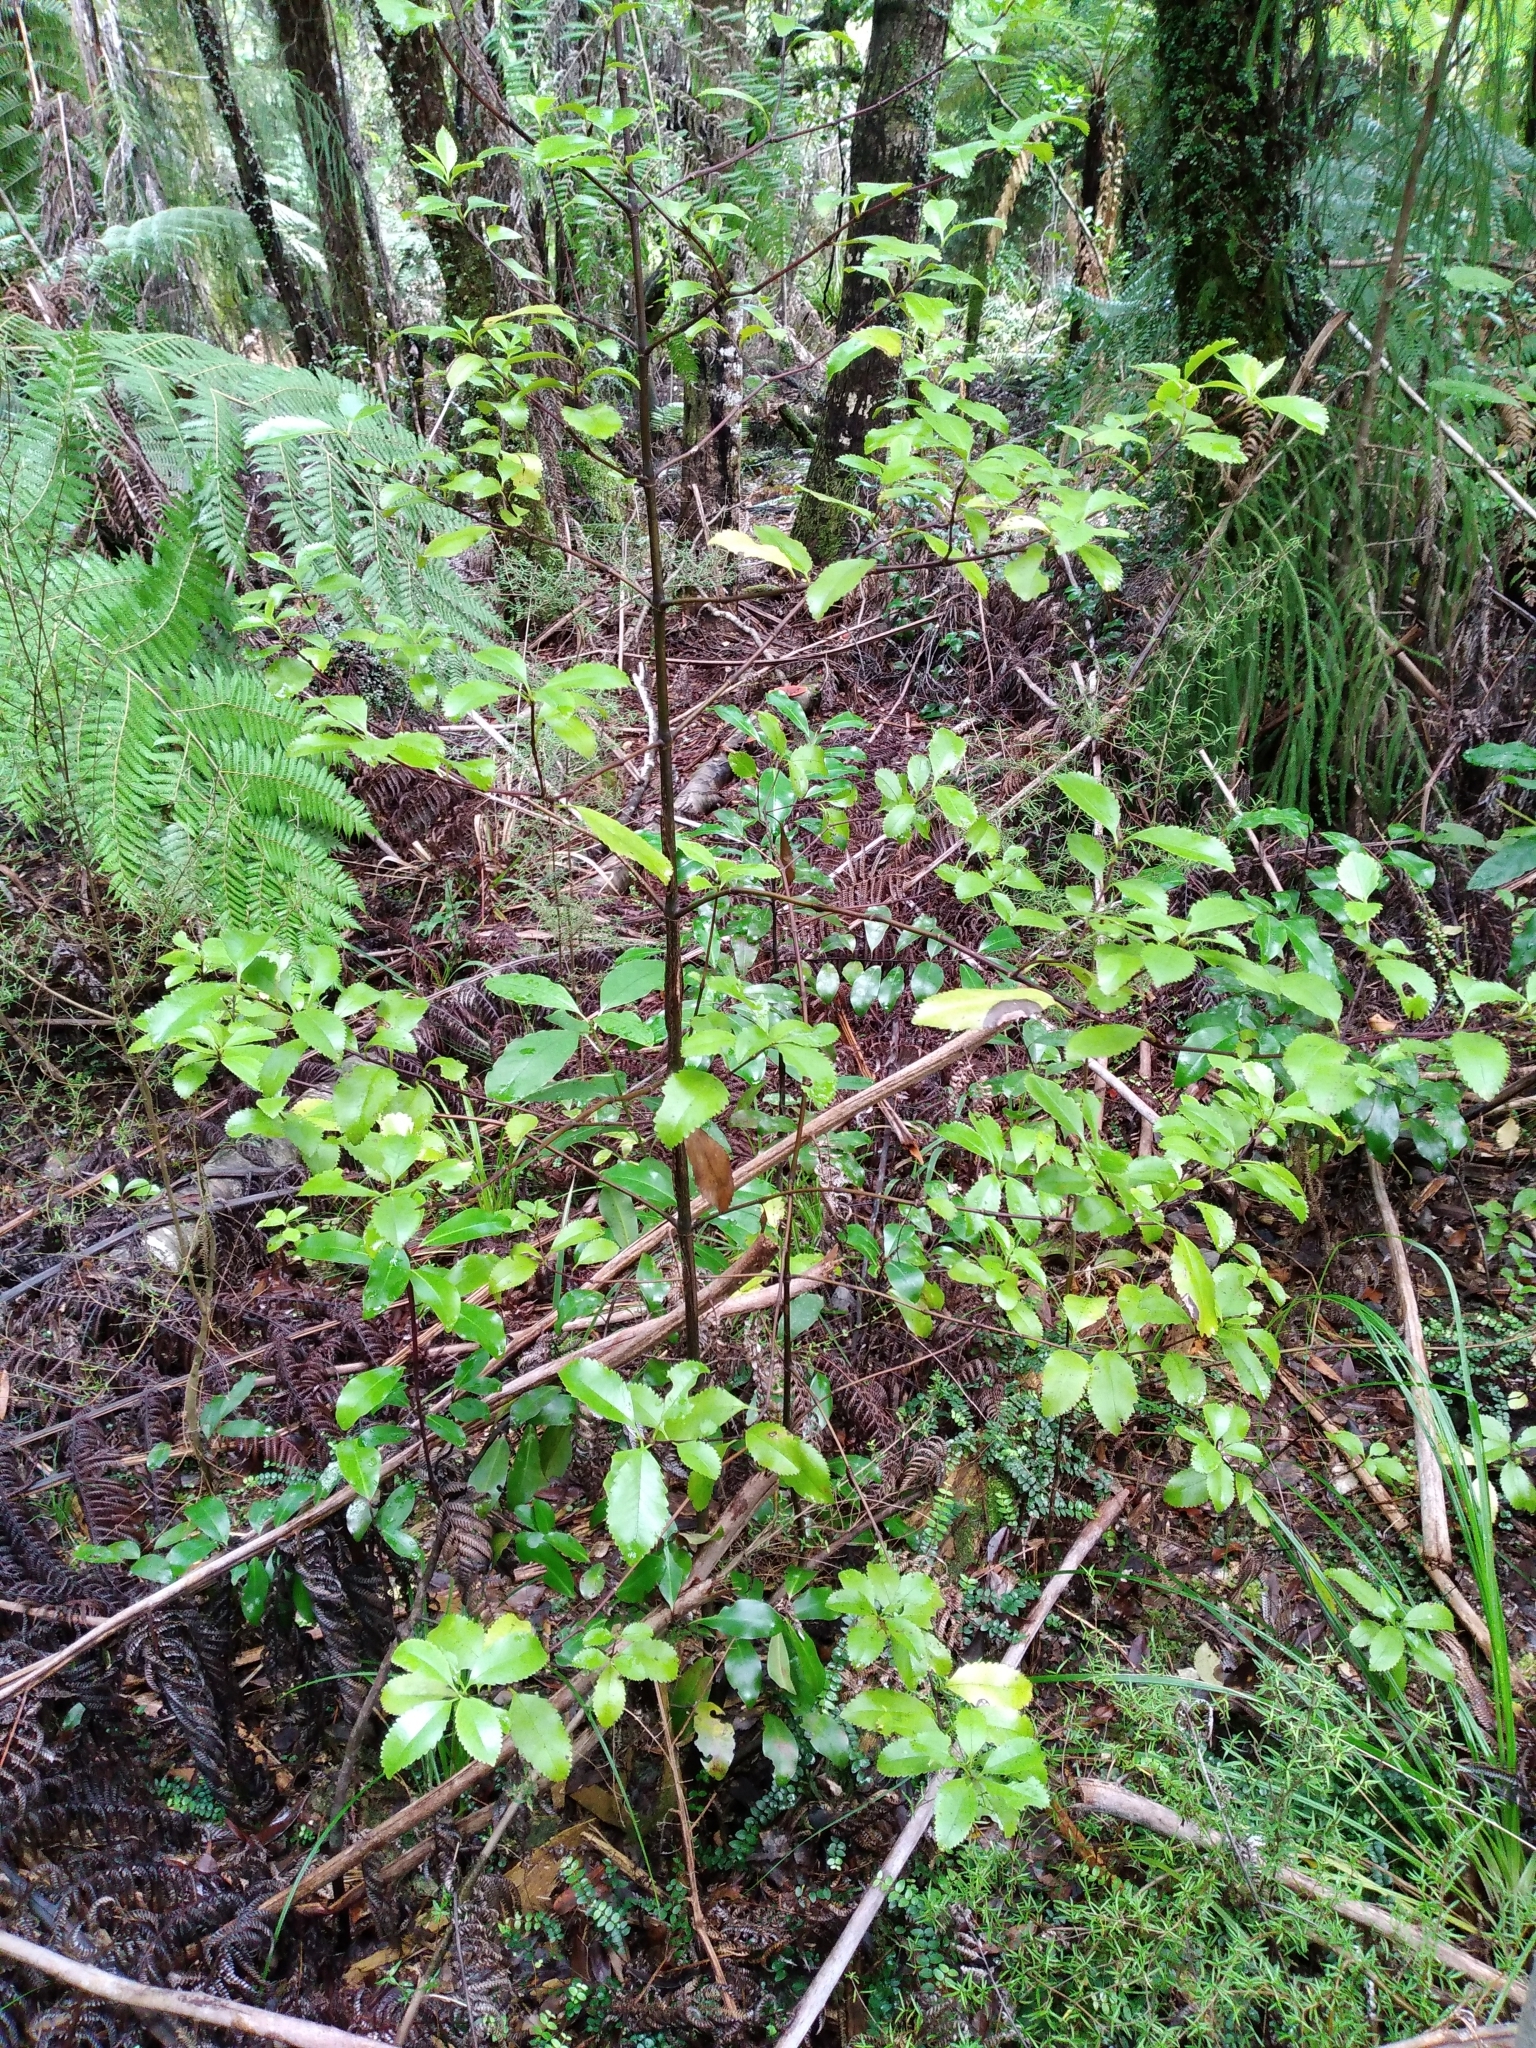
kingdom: Plantae
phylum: Tracheophyta
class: Magnoliopsida
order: Chloranthales
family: Chloranthaceae
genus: Ascarina
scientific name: Ascarina lucida
